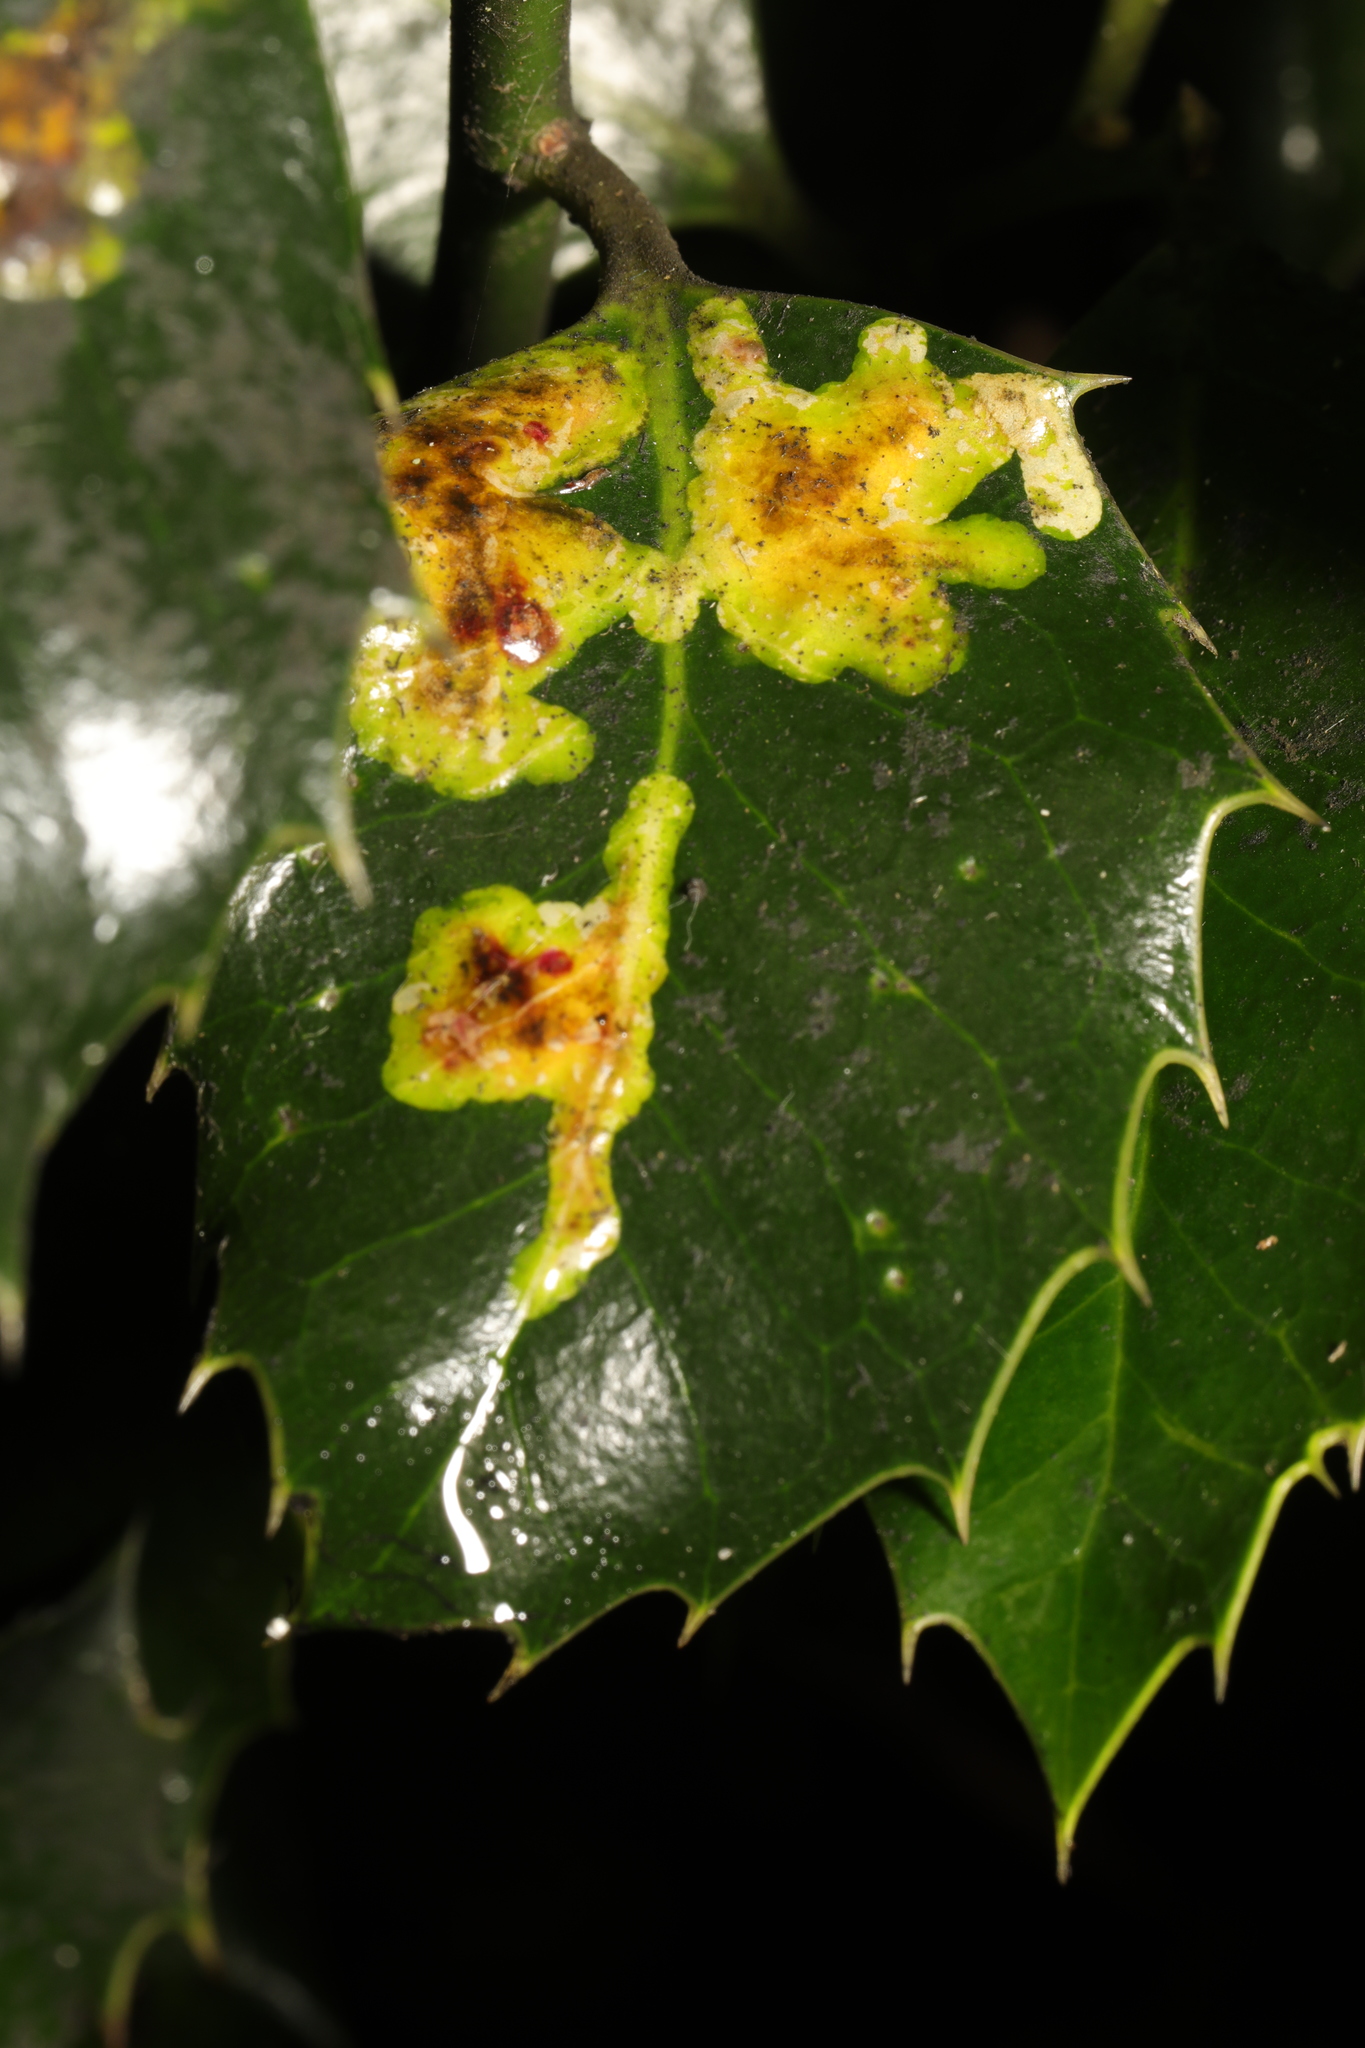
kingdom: Animalia
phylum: Arthropoda
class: Insecta
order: Diptera
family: Agromyzidae
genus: Phytomyza
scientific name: Phytomyza ilicis
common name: Holly leafminer
